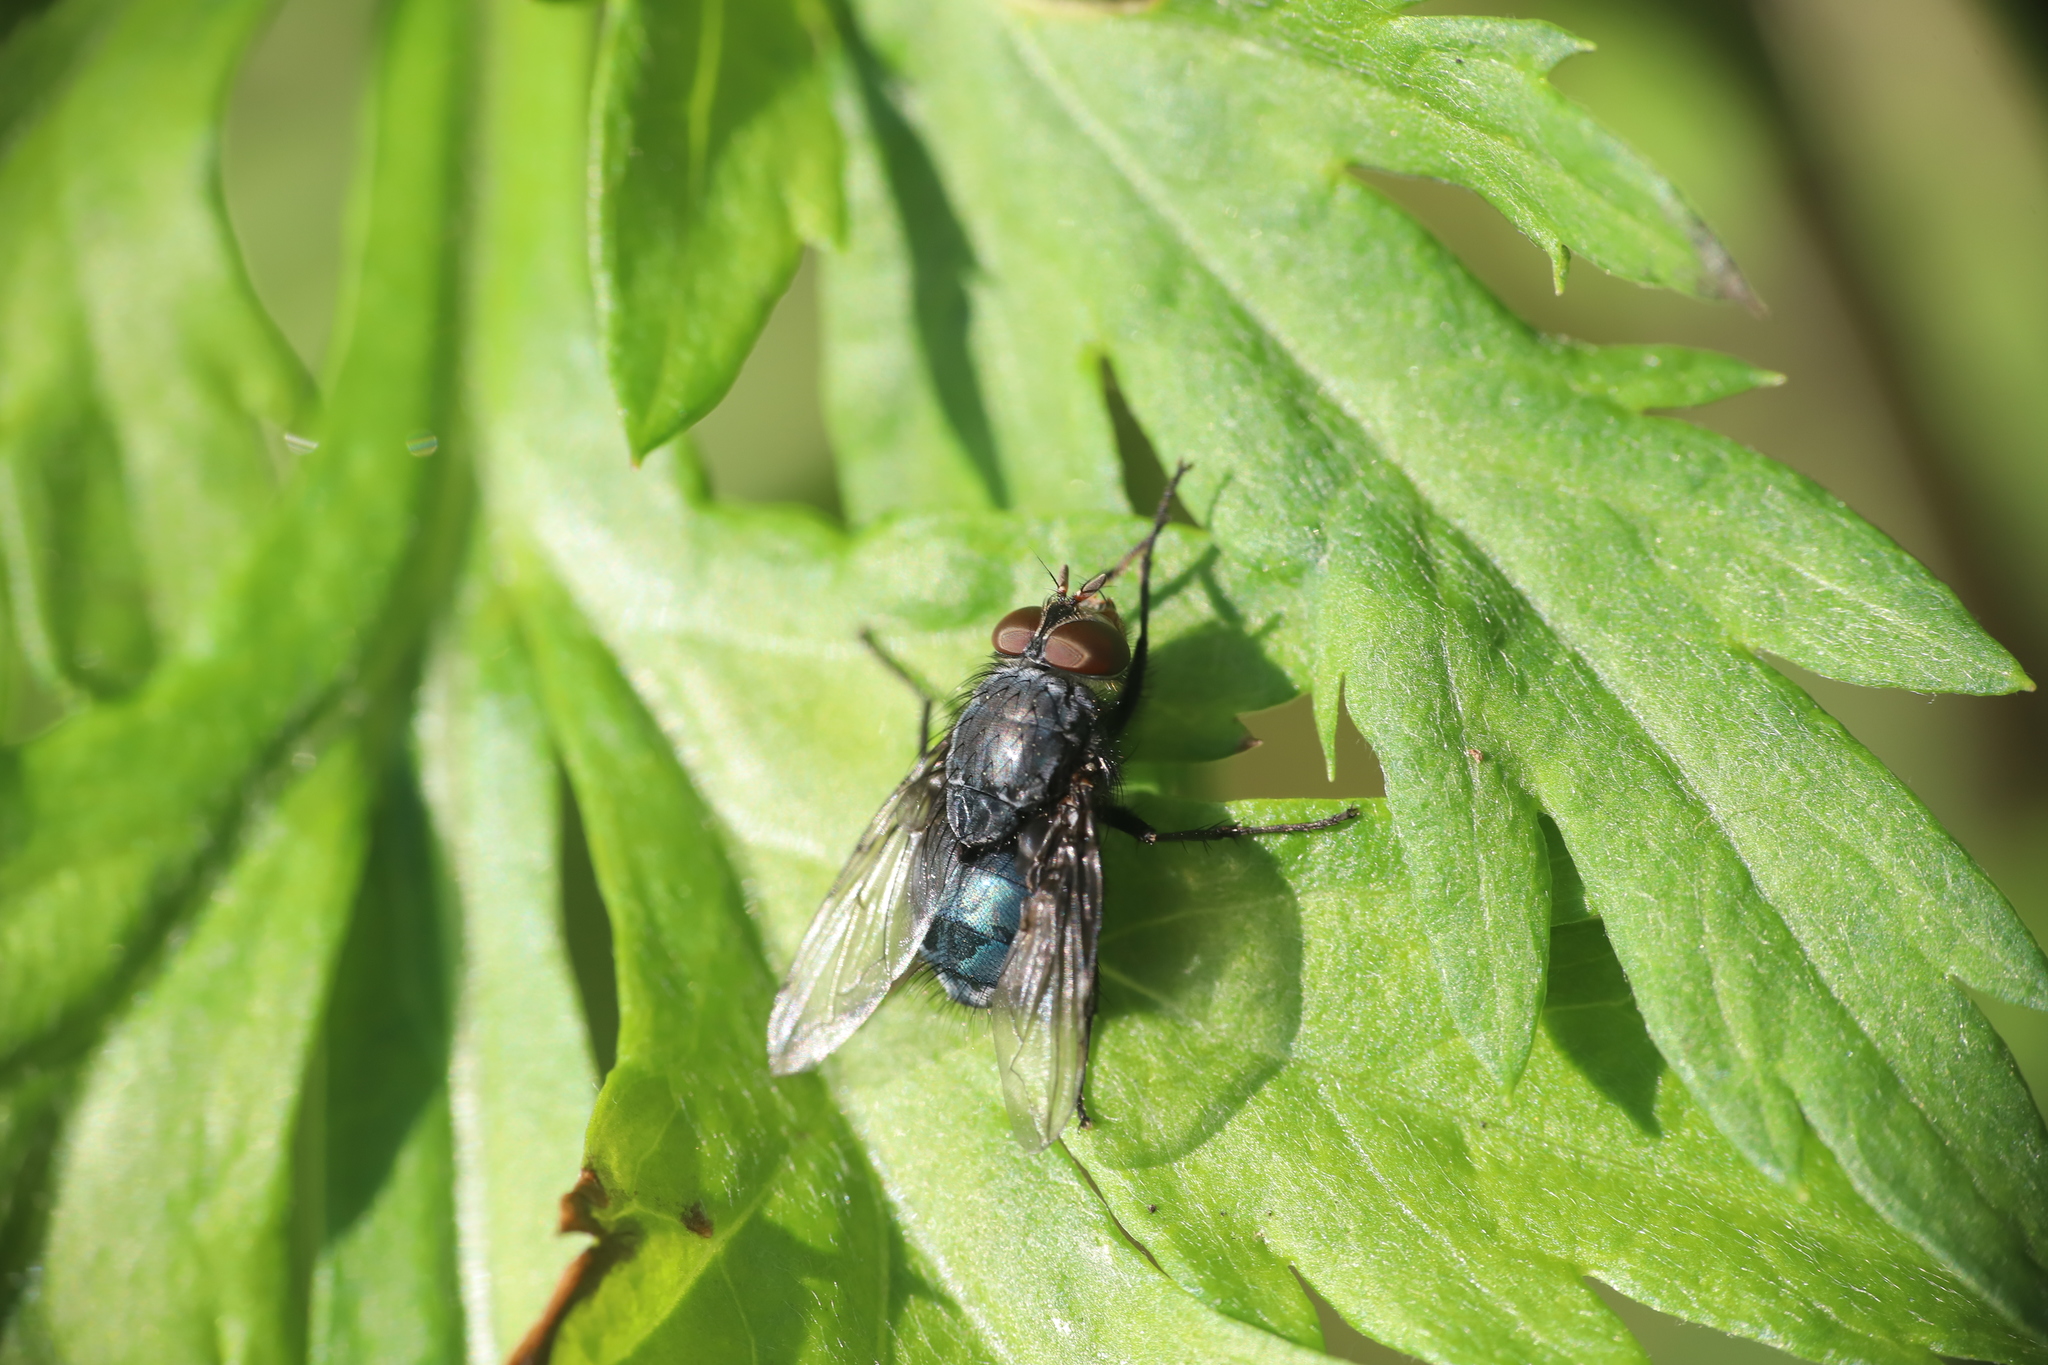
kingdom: Animalia
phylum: Arthropoda
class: Insecta
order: Diptera
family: Calliphoridae
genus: Calliphora
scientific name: Calliphora vicina
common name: Common blow flie
